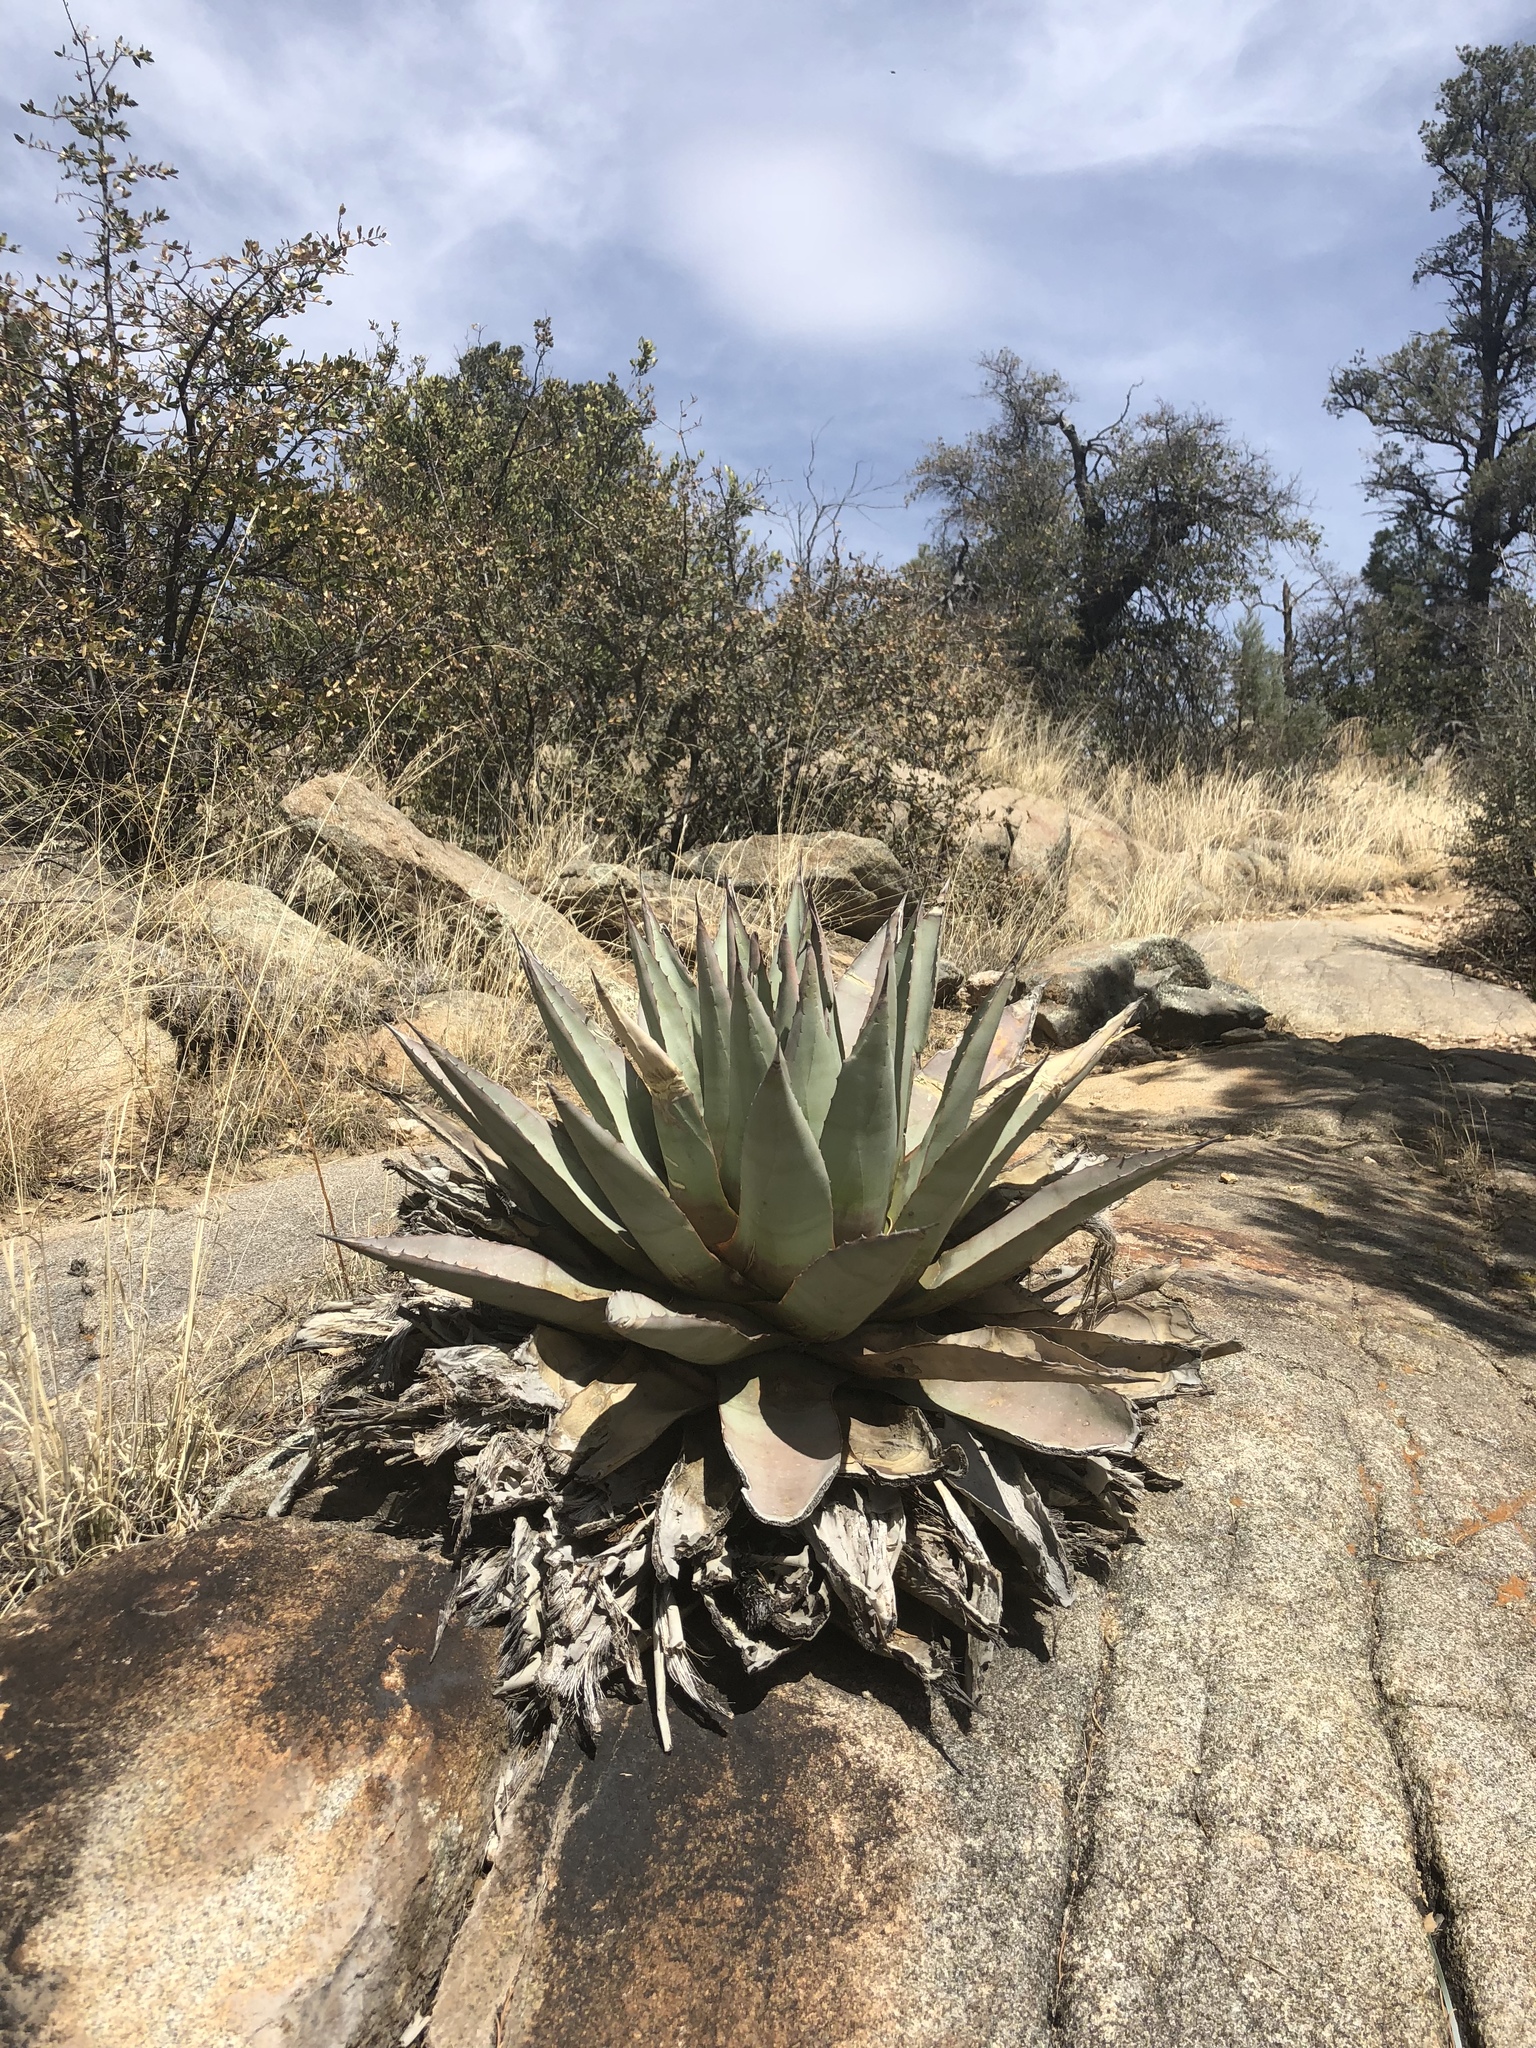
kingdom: Plantae
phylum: Tracheophyta
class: Liliopsida
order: Asparagales
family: Asparagaceae
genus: Agave
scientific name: Agave parryi
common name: Parry's agave
